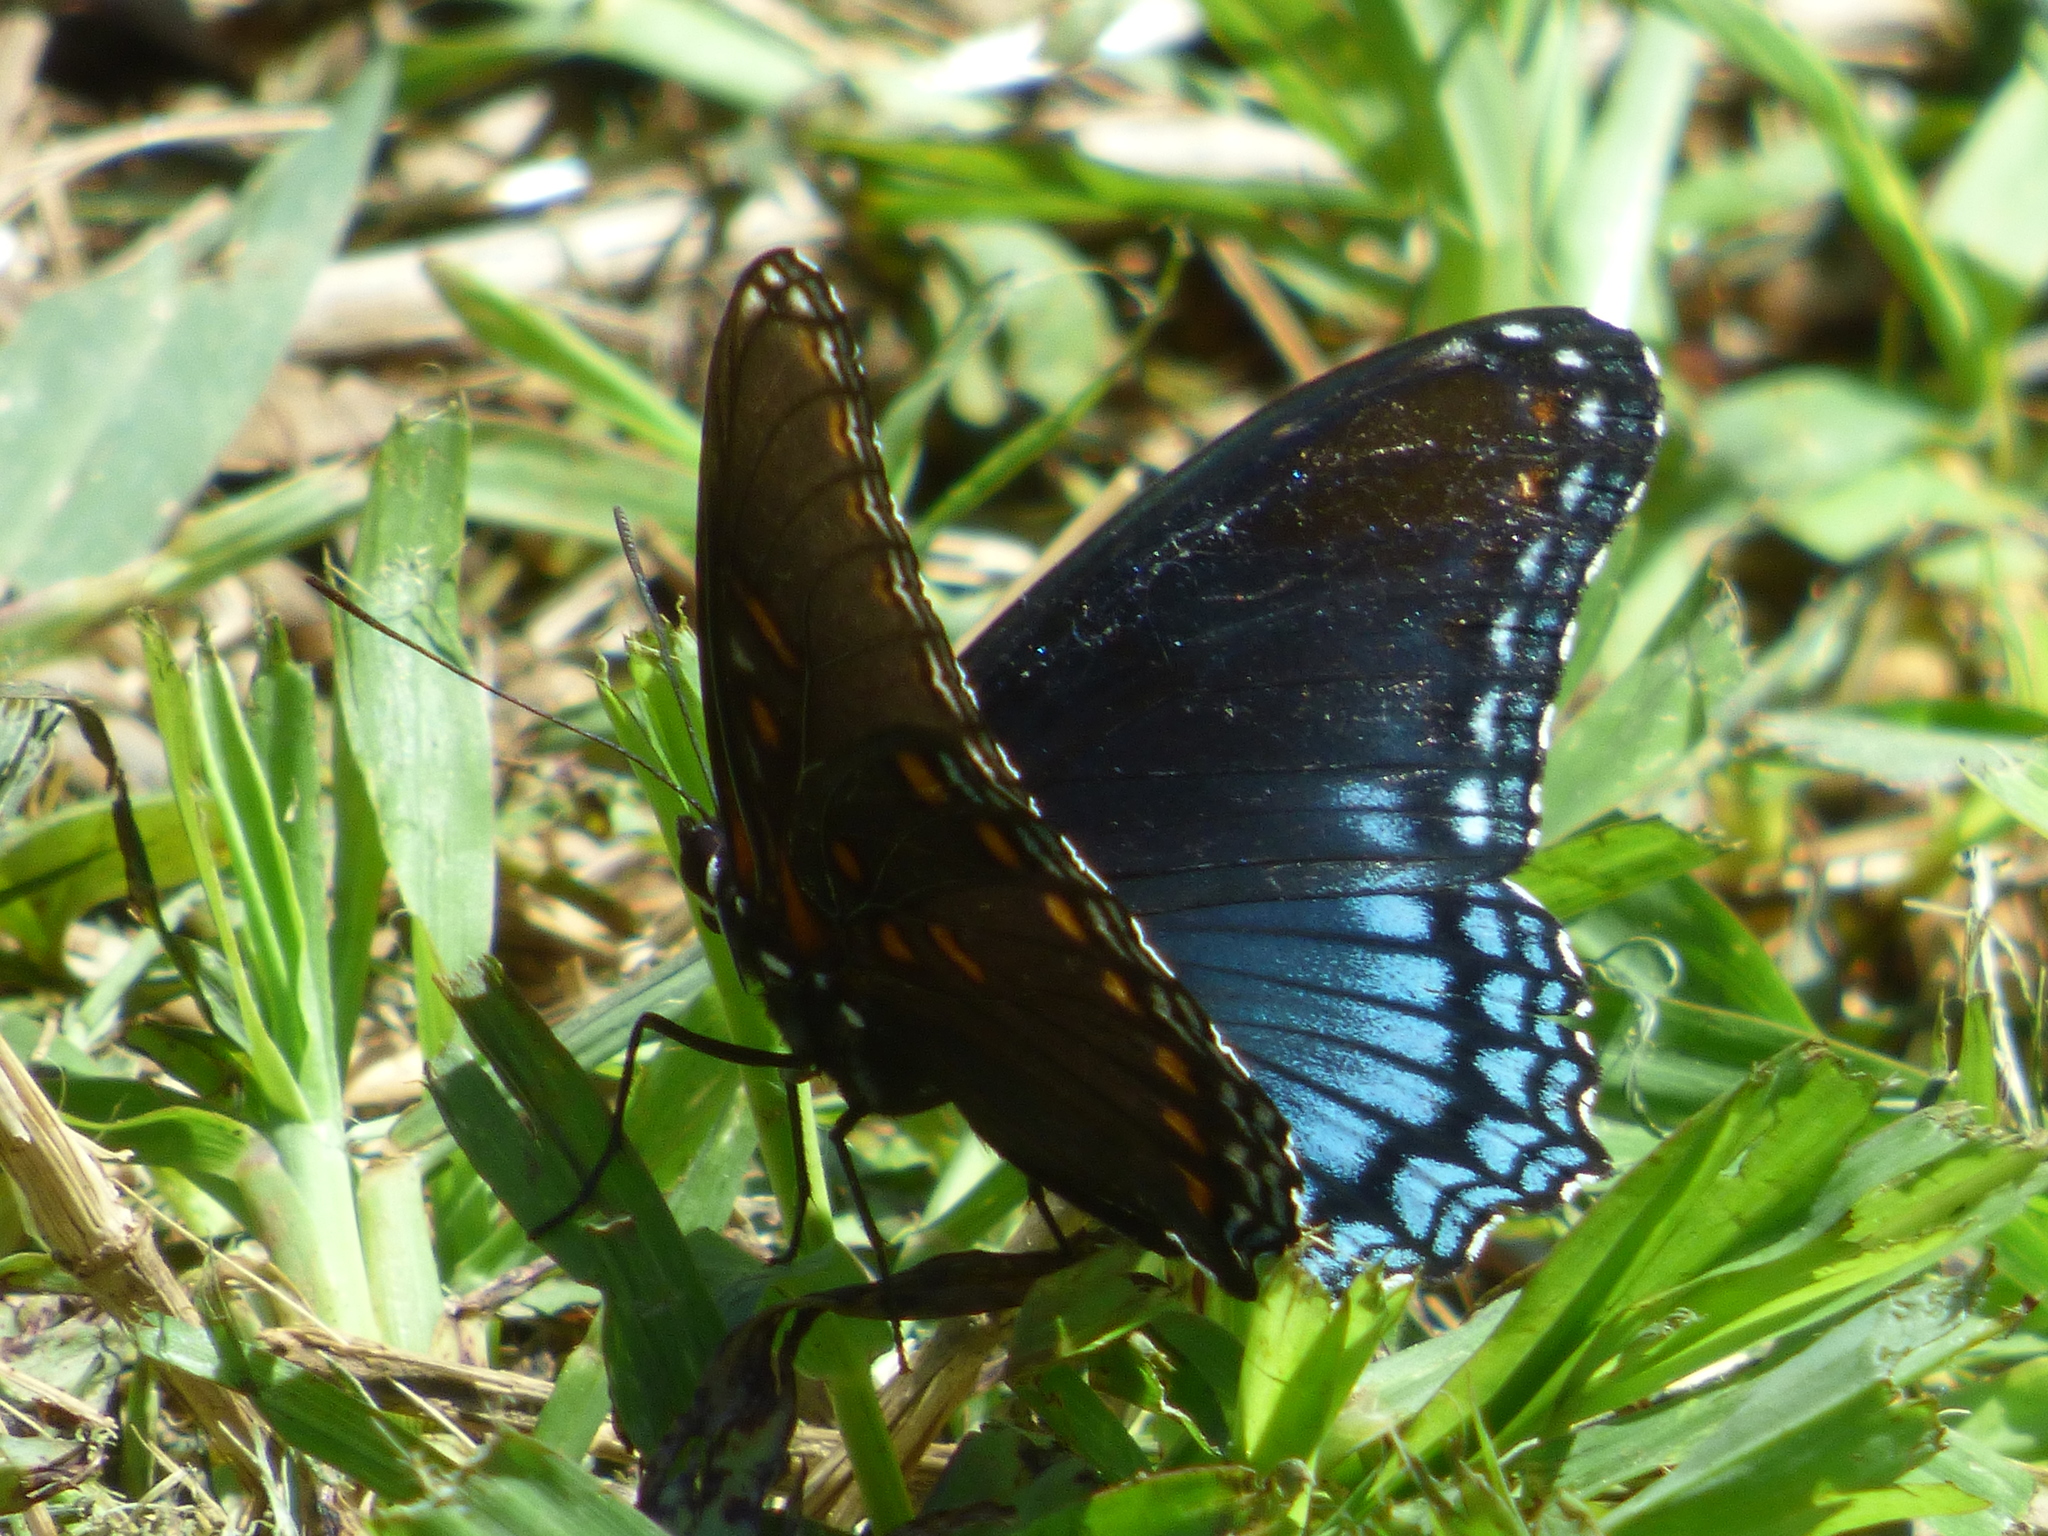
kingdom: Animalia
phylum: Arthropoda
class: Insecta
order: Lepidoptera
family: Nymphalidae
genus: Limenitis
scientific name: Limenitis astyanax
